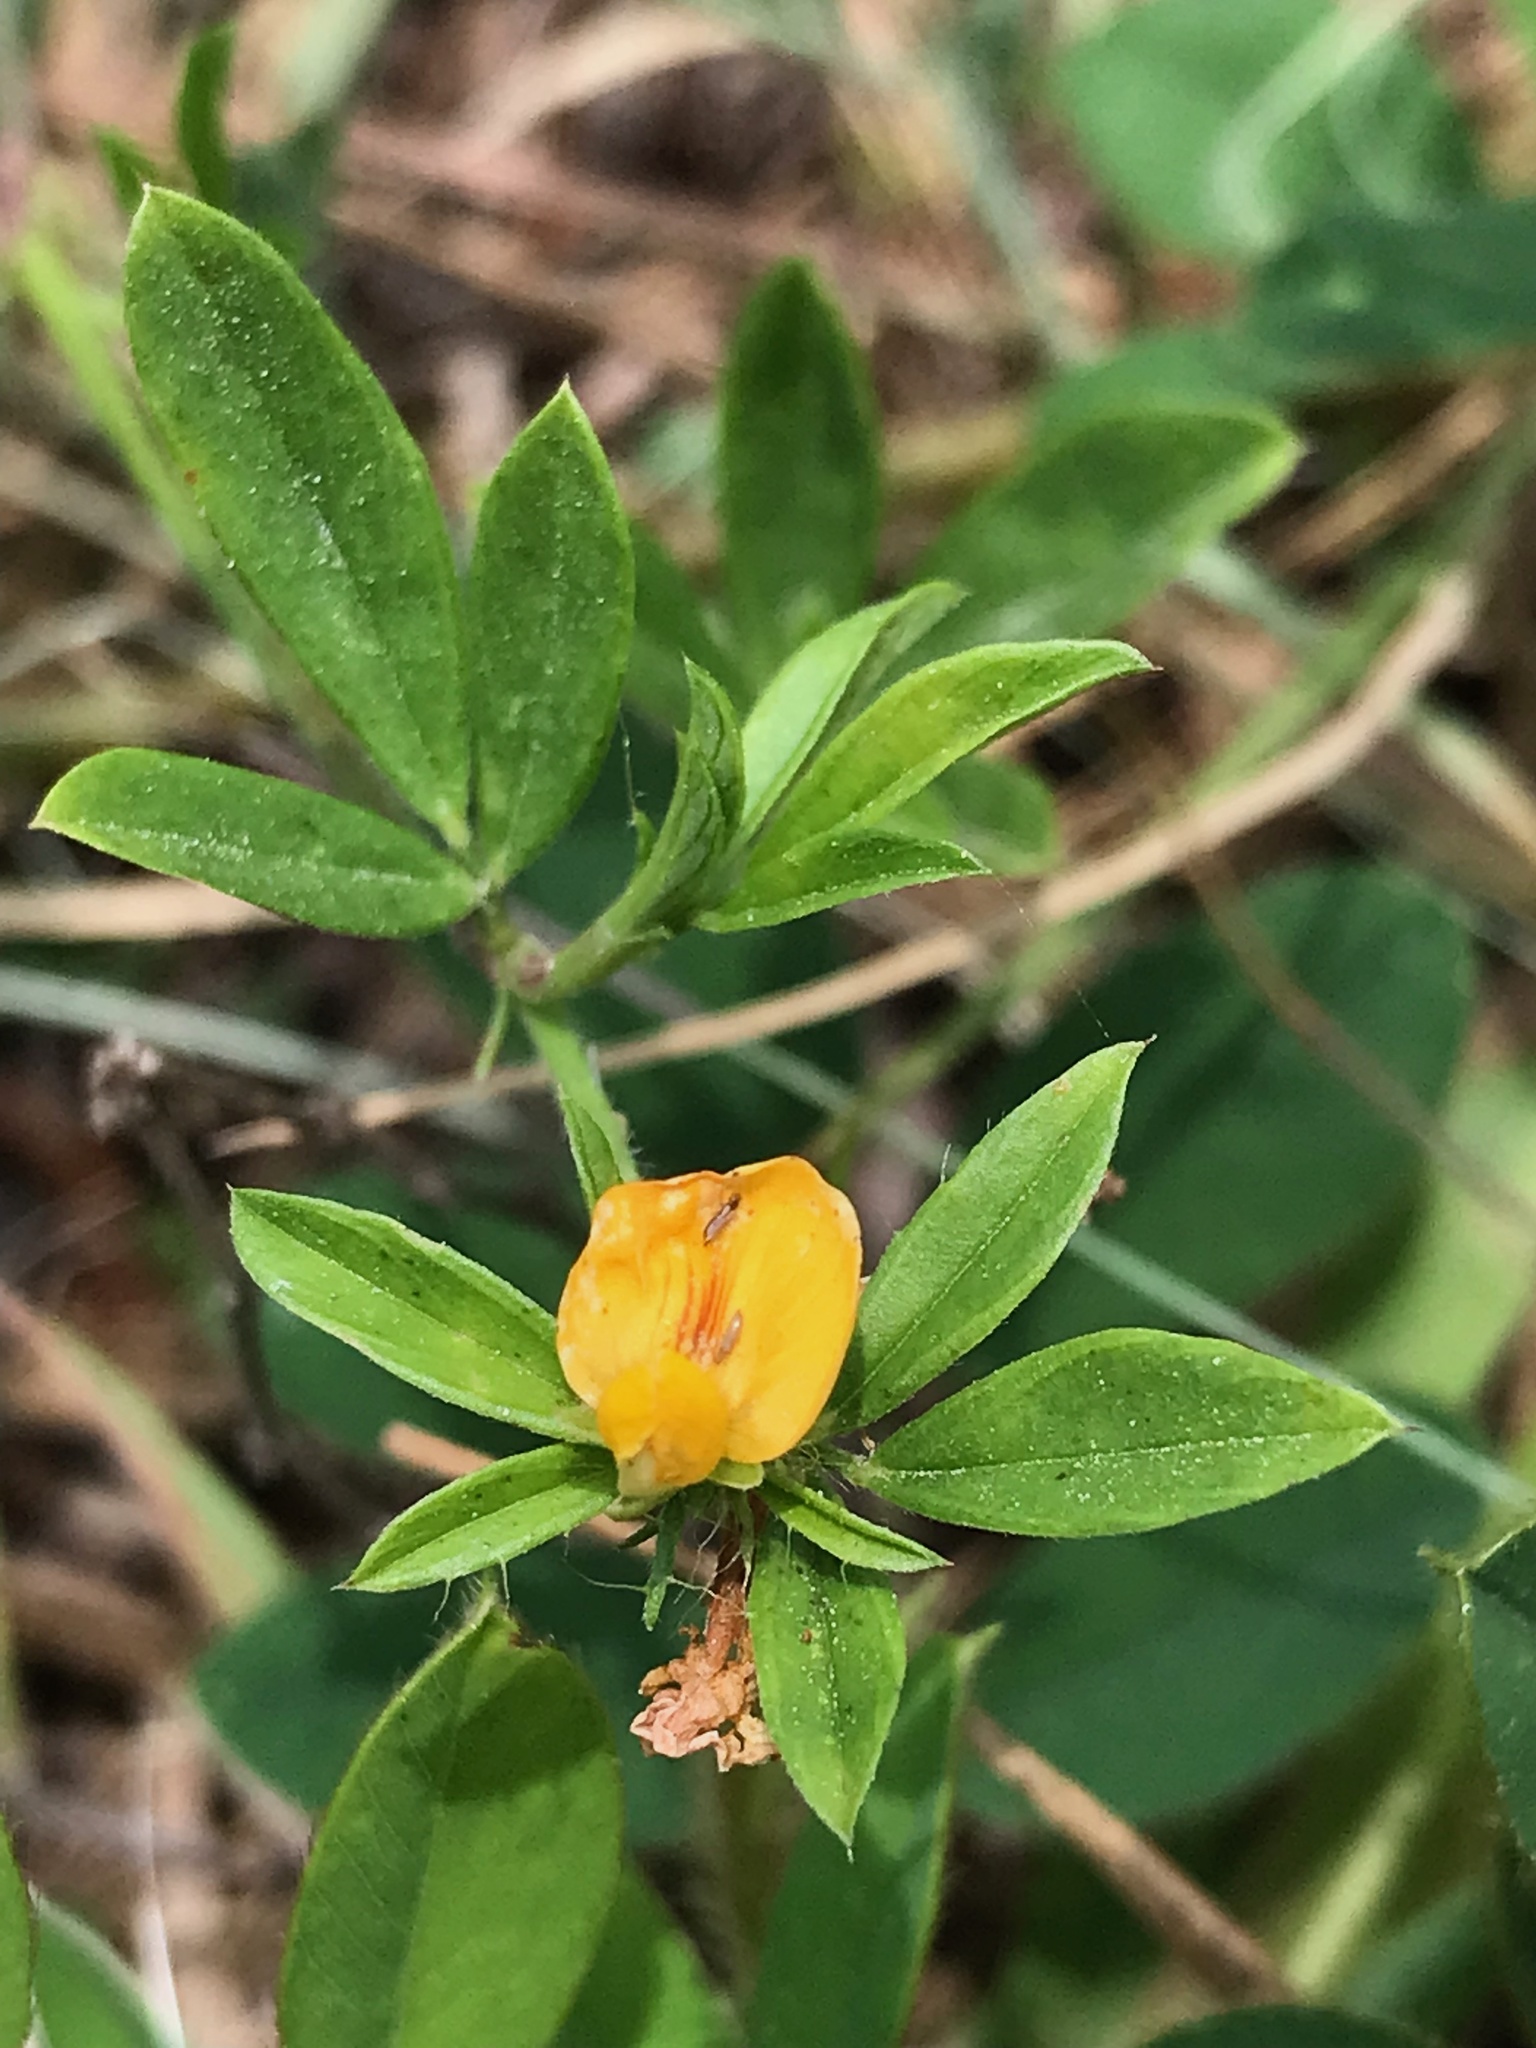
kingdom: Plantae
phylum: Tracheophyta
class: Magnoliopsida
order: Fabales
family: Fabaceae
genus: Stylosanthes
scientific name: Stylosanthes biflora
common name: Two-flower pencil-flower
